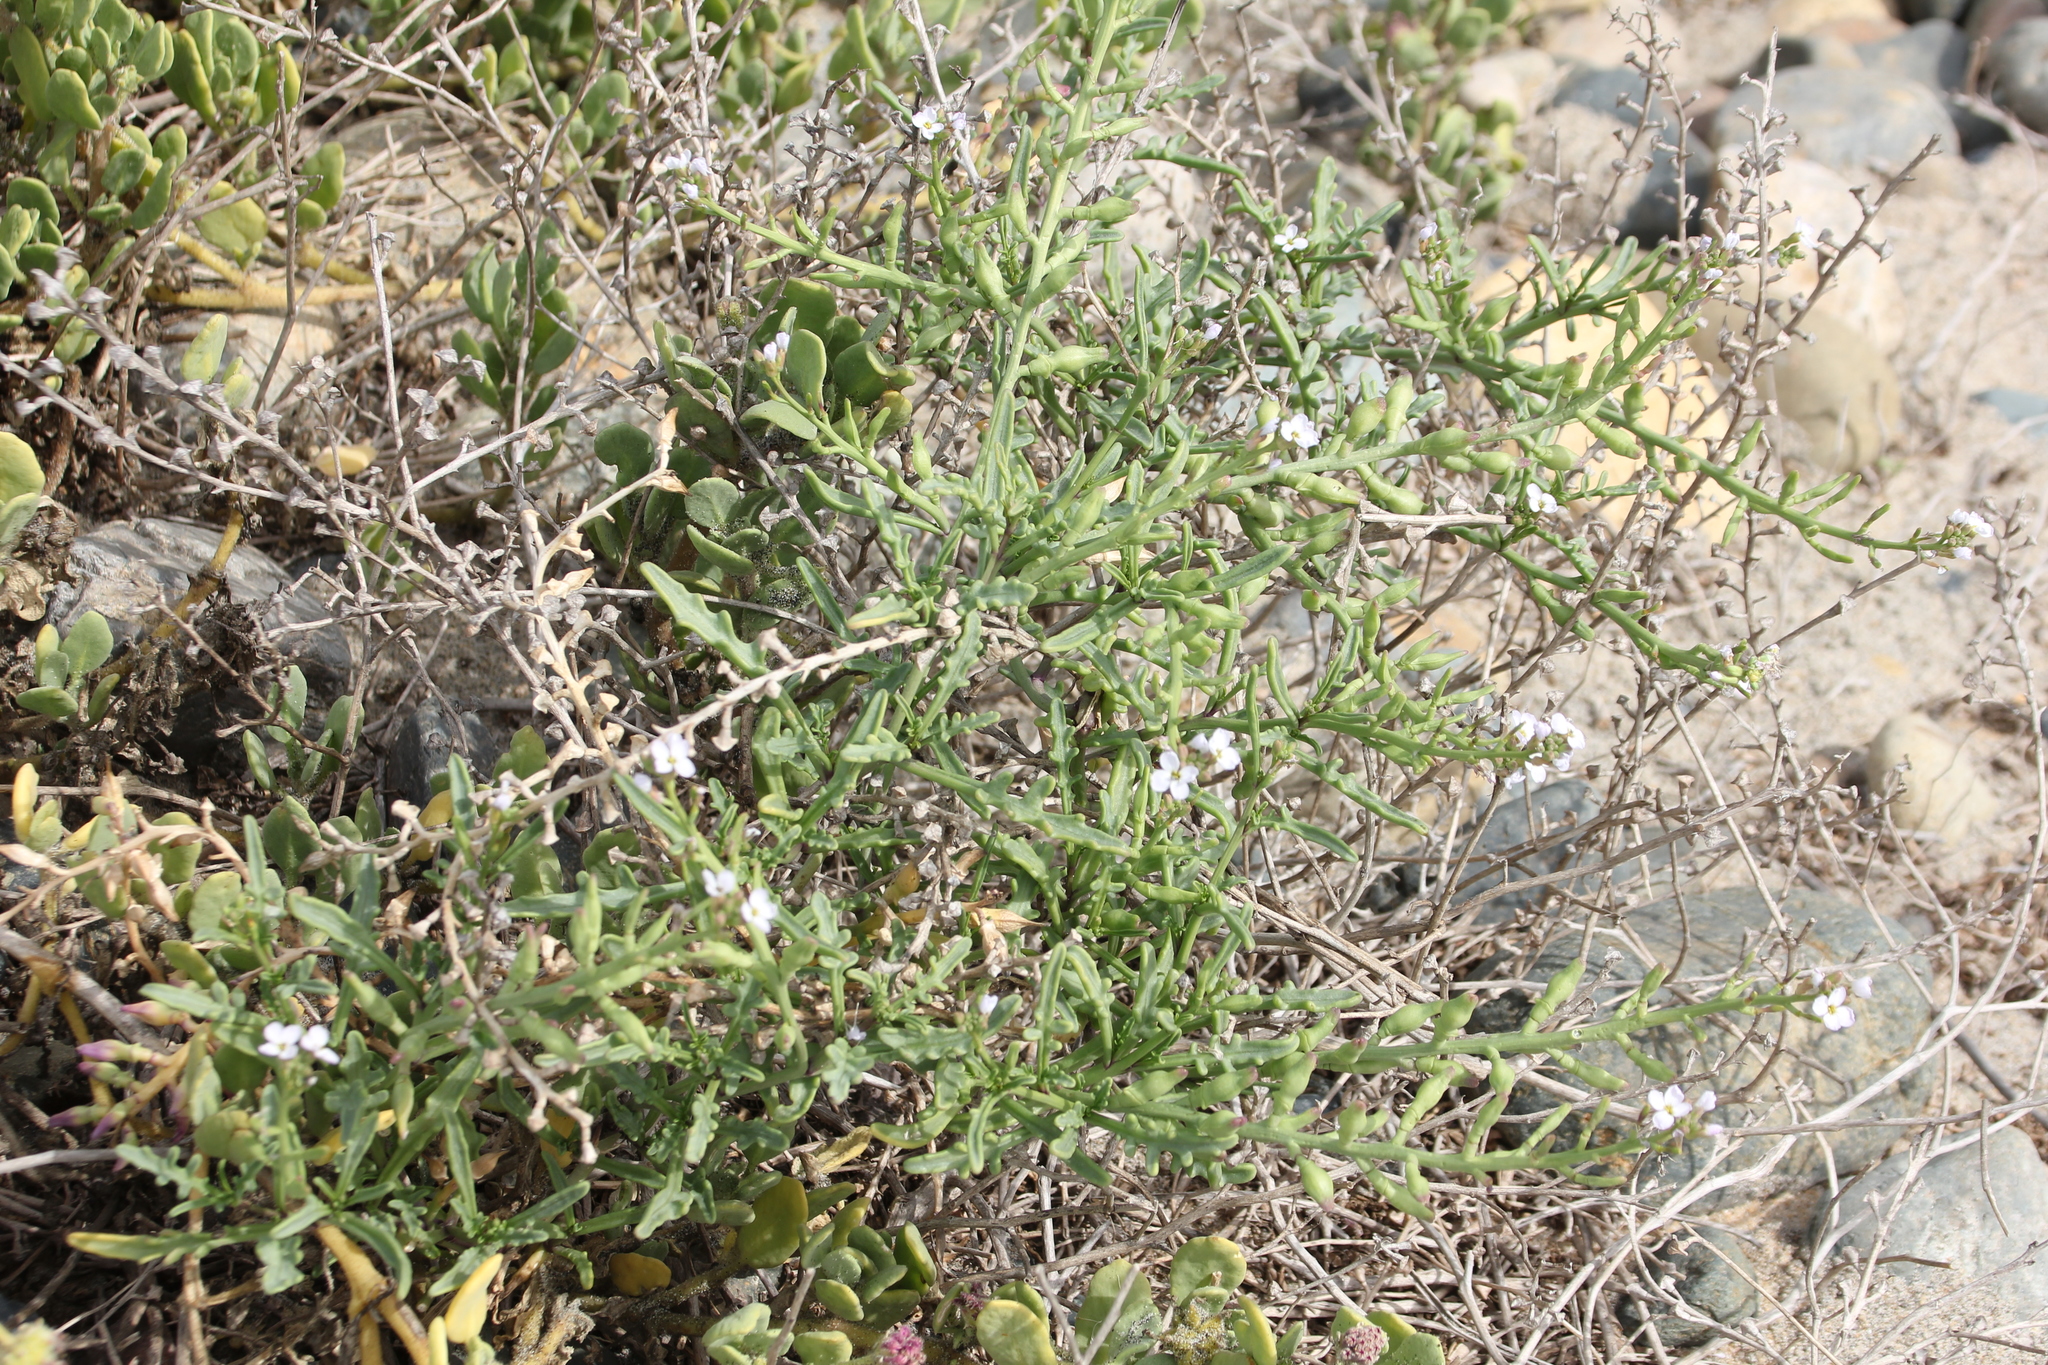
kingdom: Plantae
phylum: Tracheophyta
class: Magnoliopsida
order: Brassicales
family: Brassicaceae
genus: Cakile
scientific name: Cakile maritima
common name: Sea rocket
